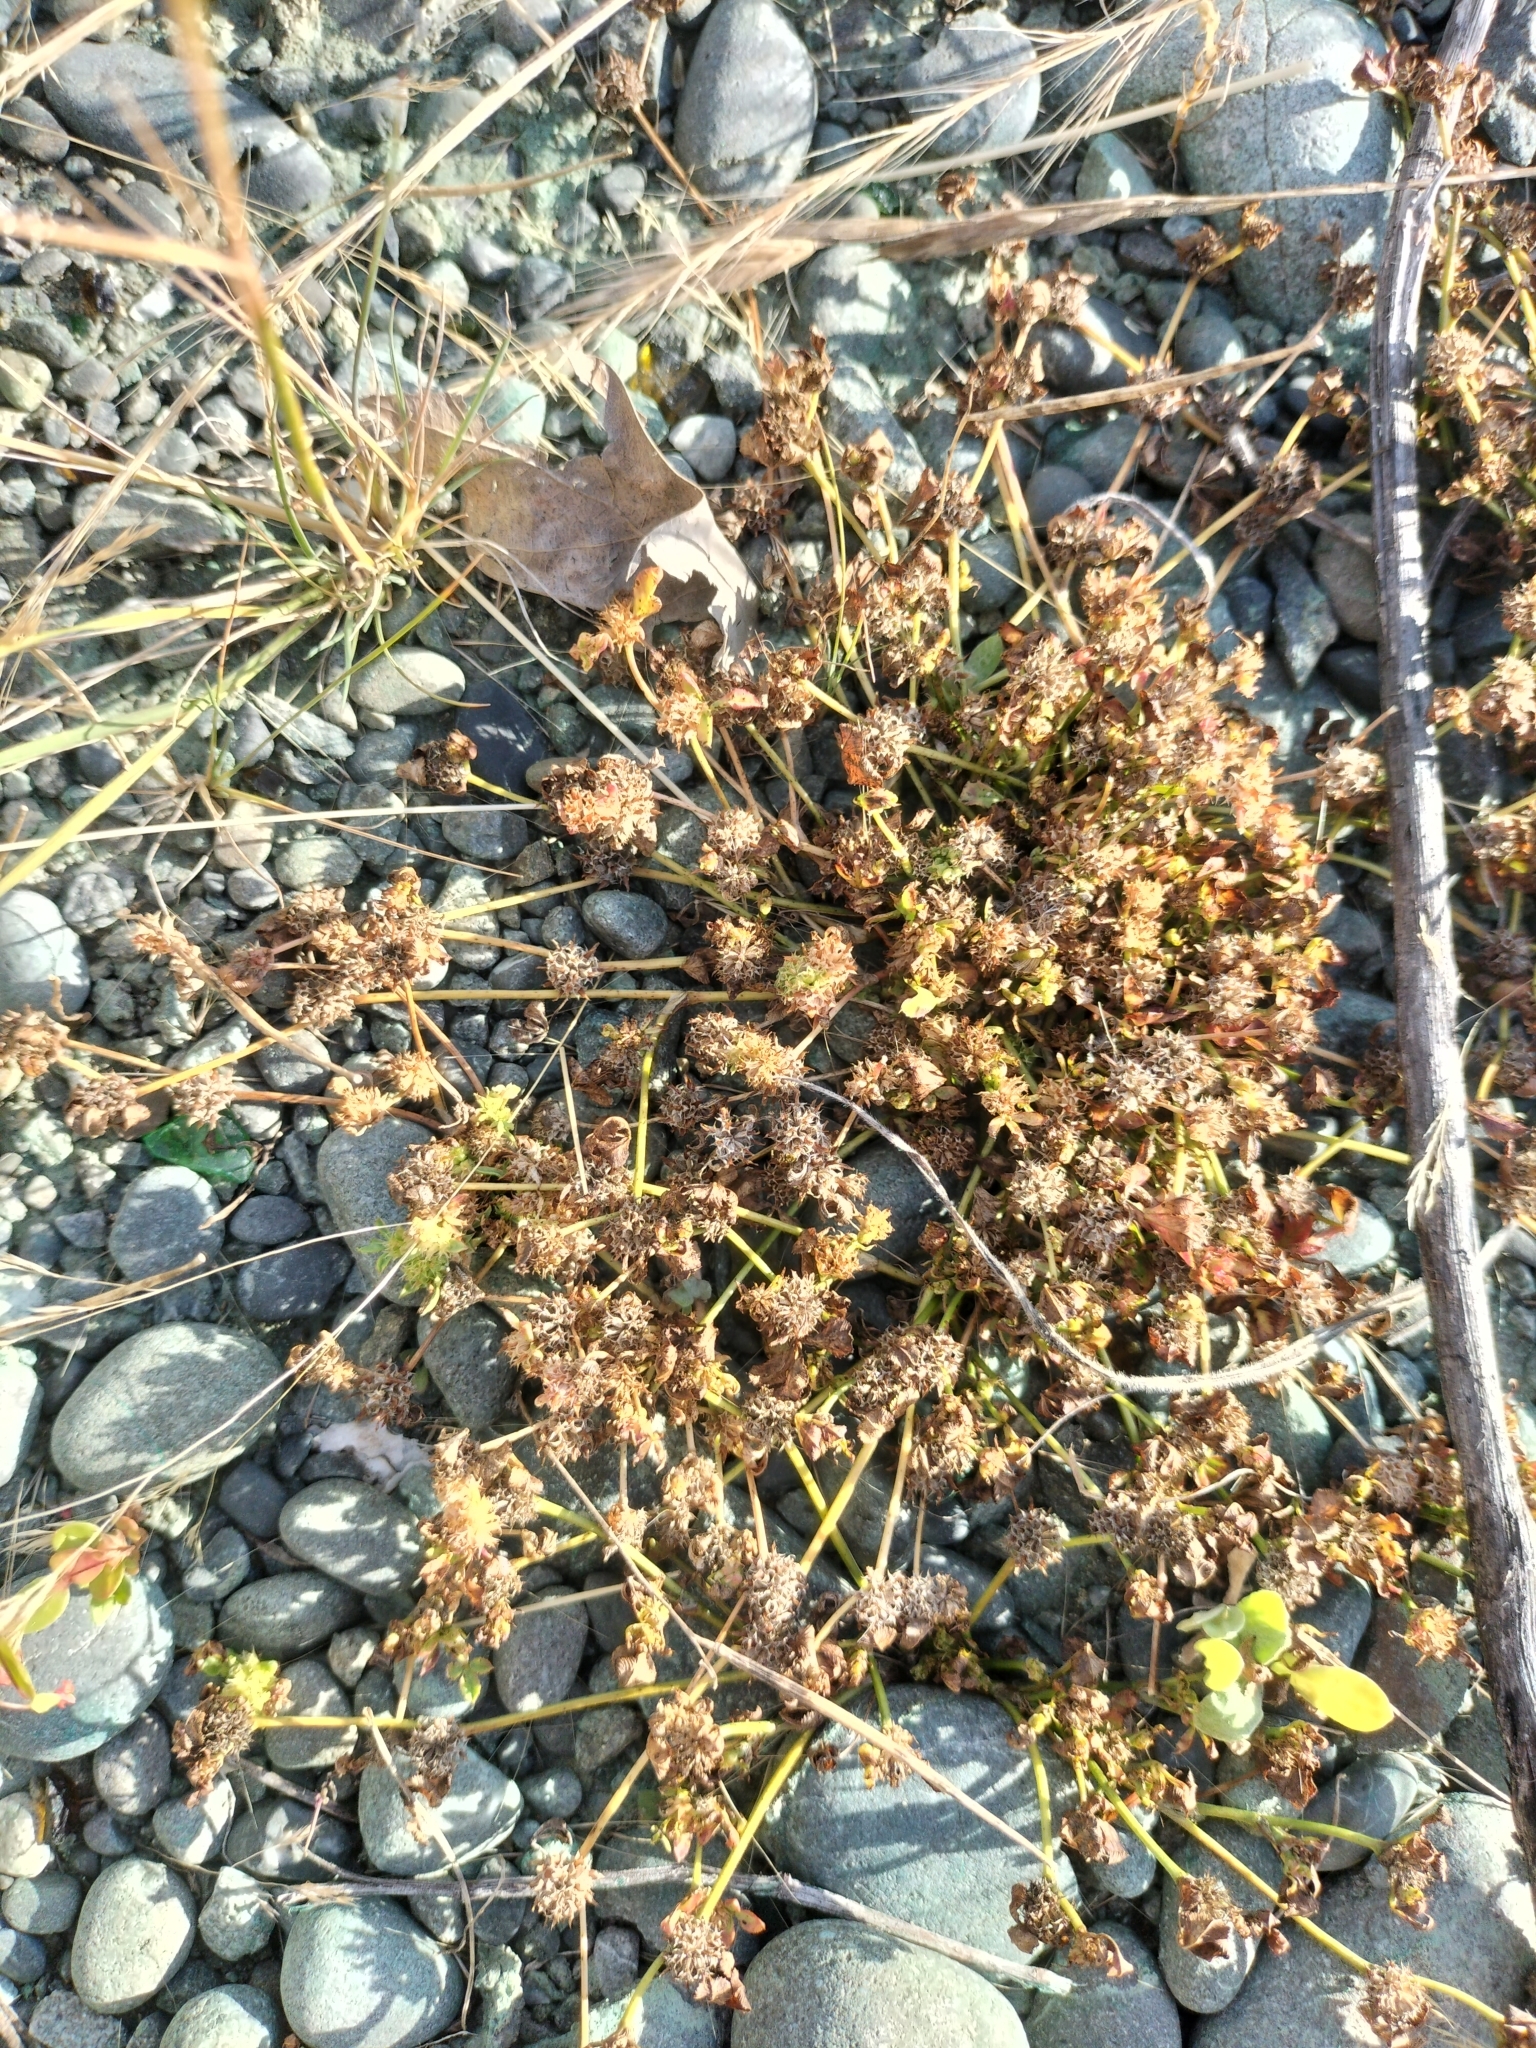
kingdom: Plantae
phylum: Tracheophyta
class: Magnoliopsida
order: Fabales
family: Fabaceae
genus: Trifolium
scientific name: Trifolium glomeratum
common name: Clustered clover
